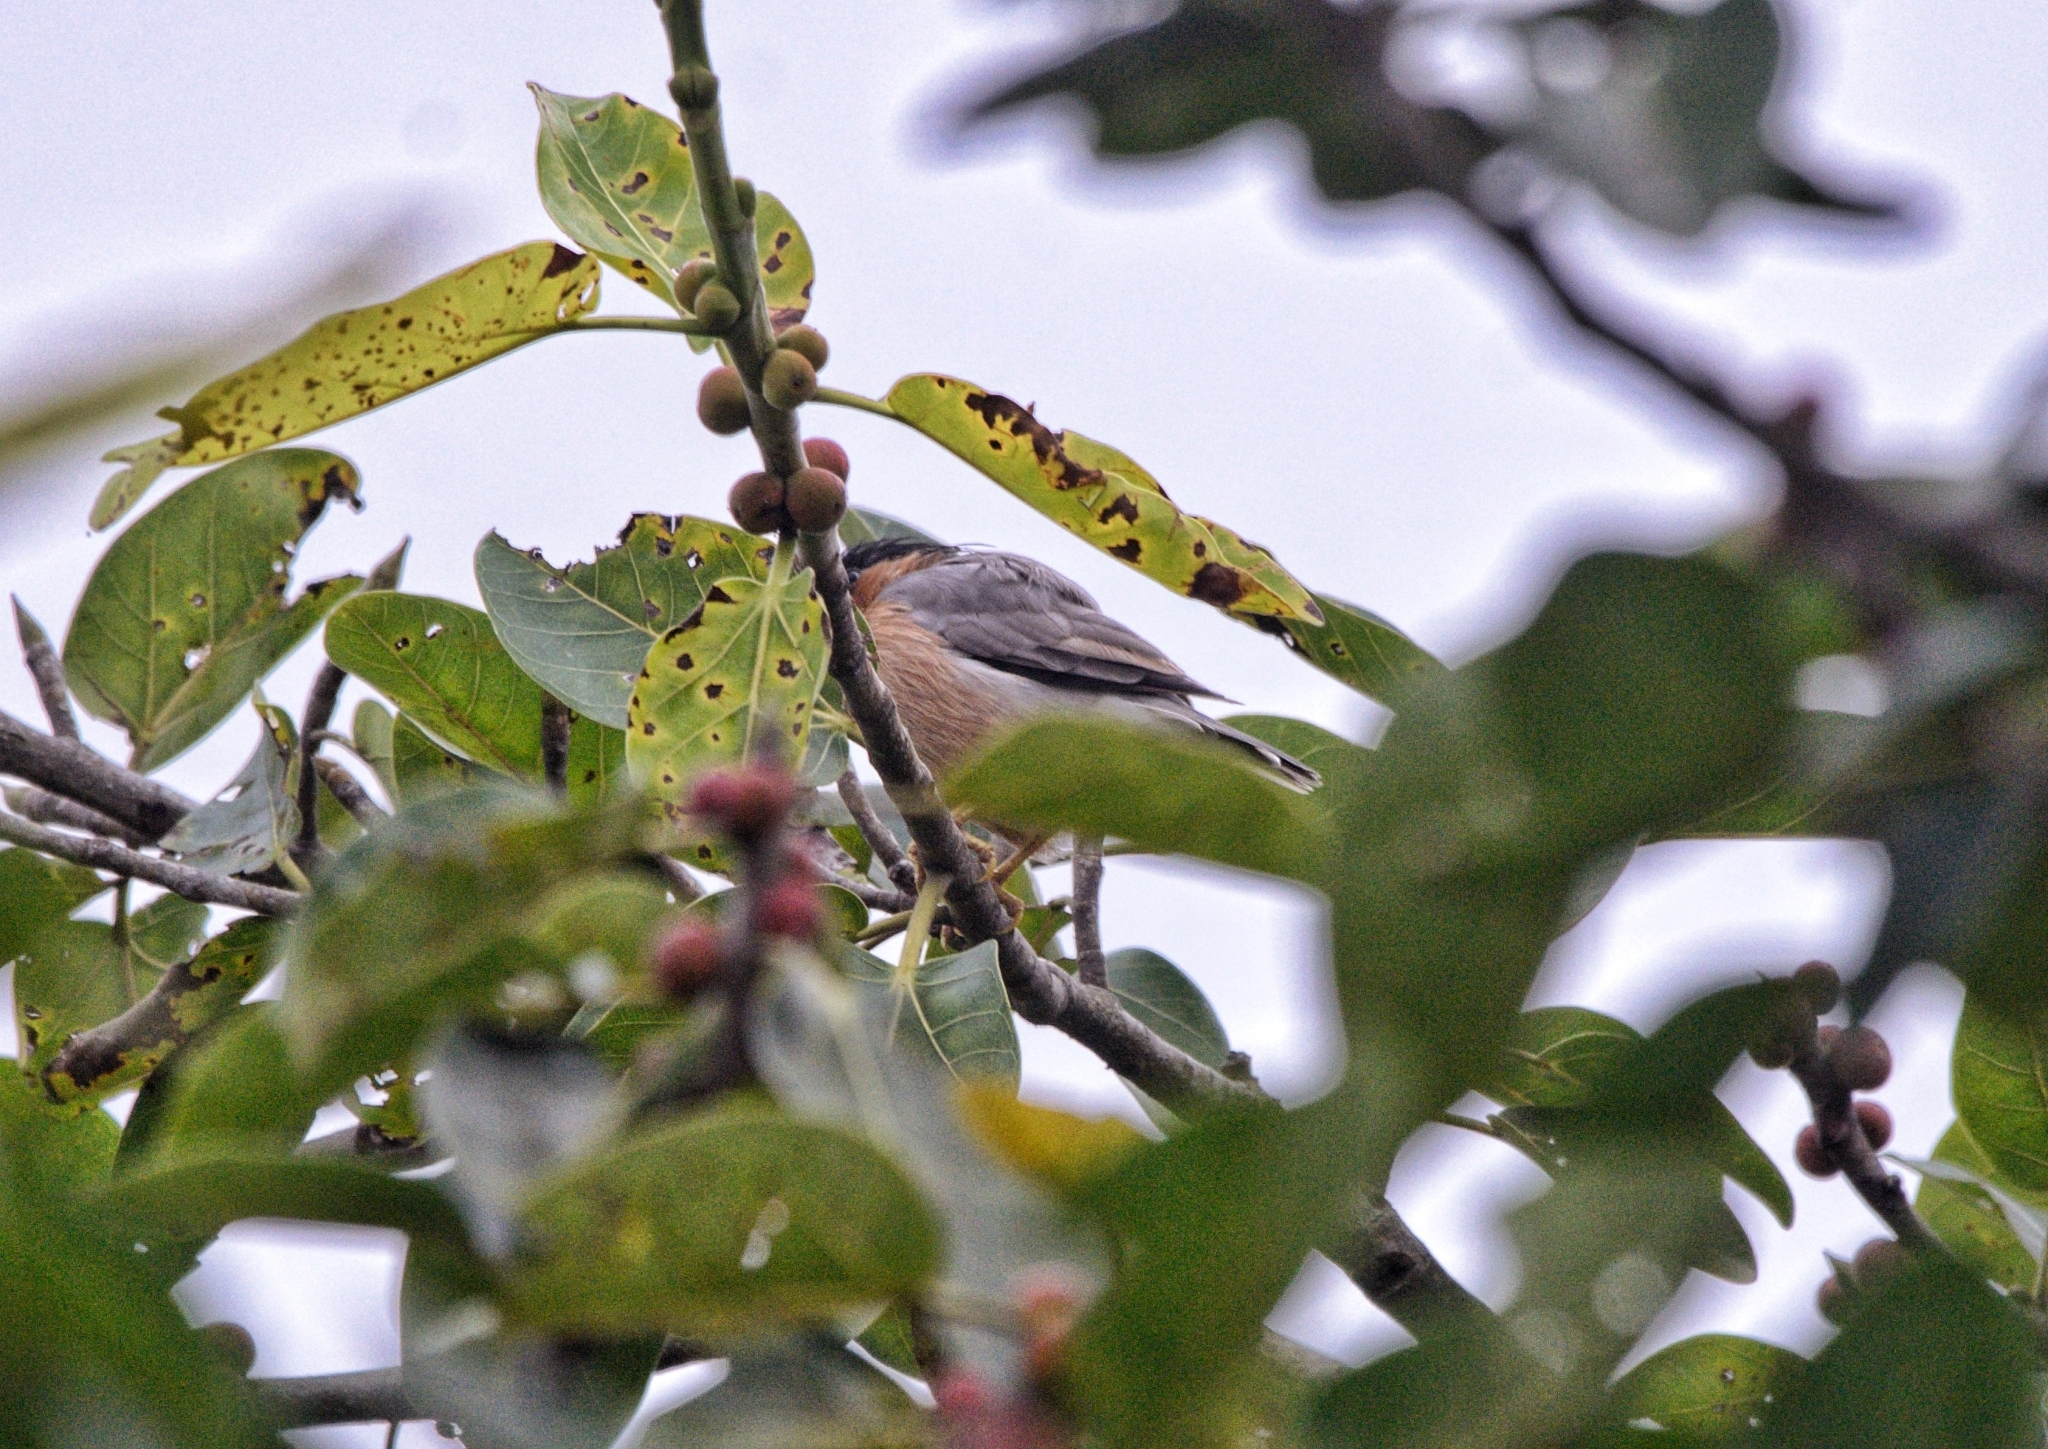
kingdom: Animalia
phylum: Chordata
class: Aves
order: Passeriformes
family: Sturnidae
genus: Sturnia
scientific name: Sturnia pagodarum
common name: Brahminy starling
